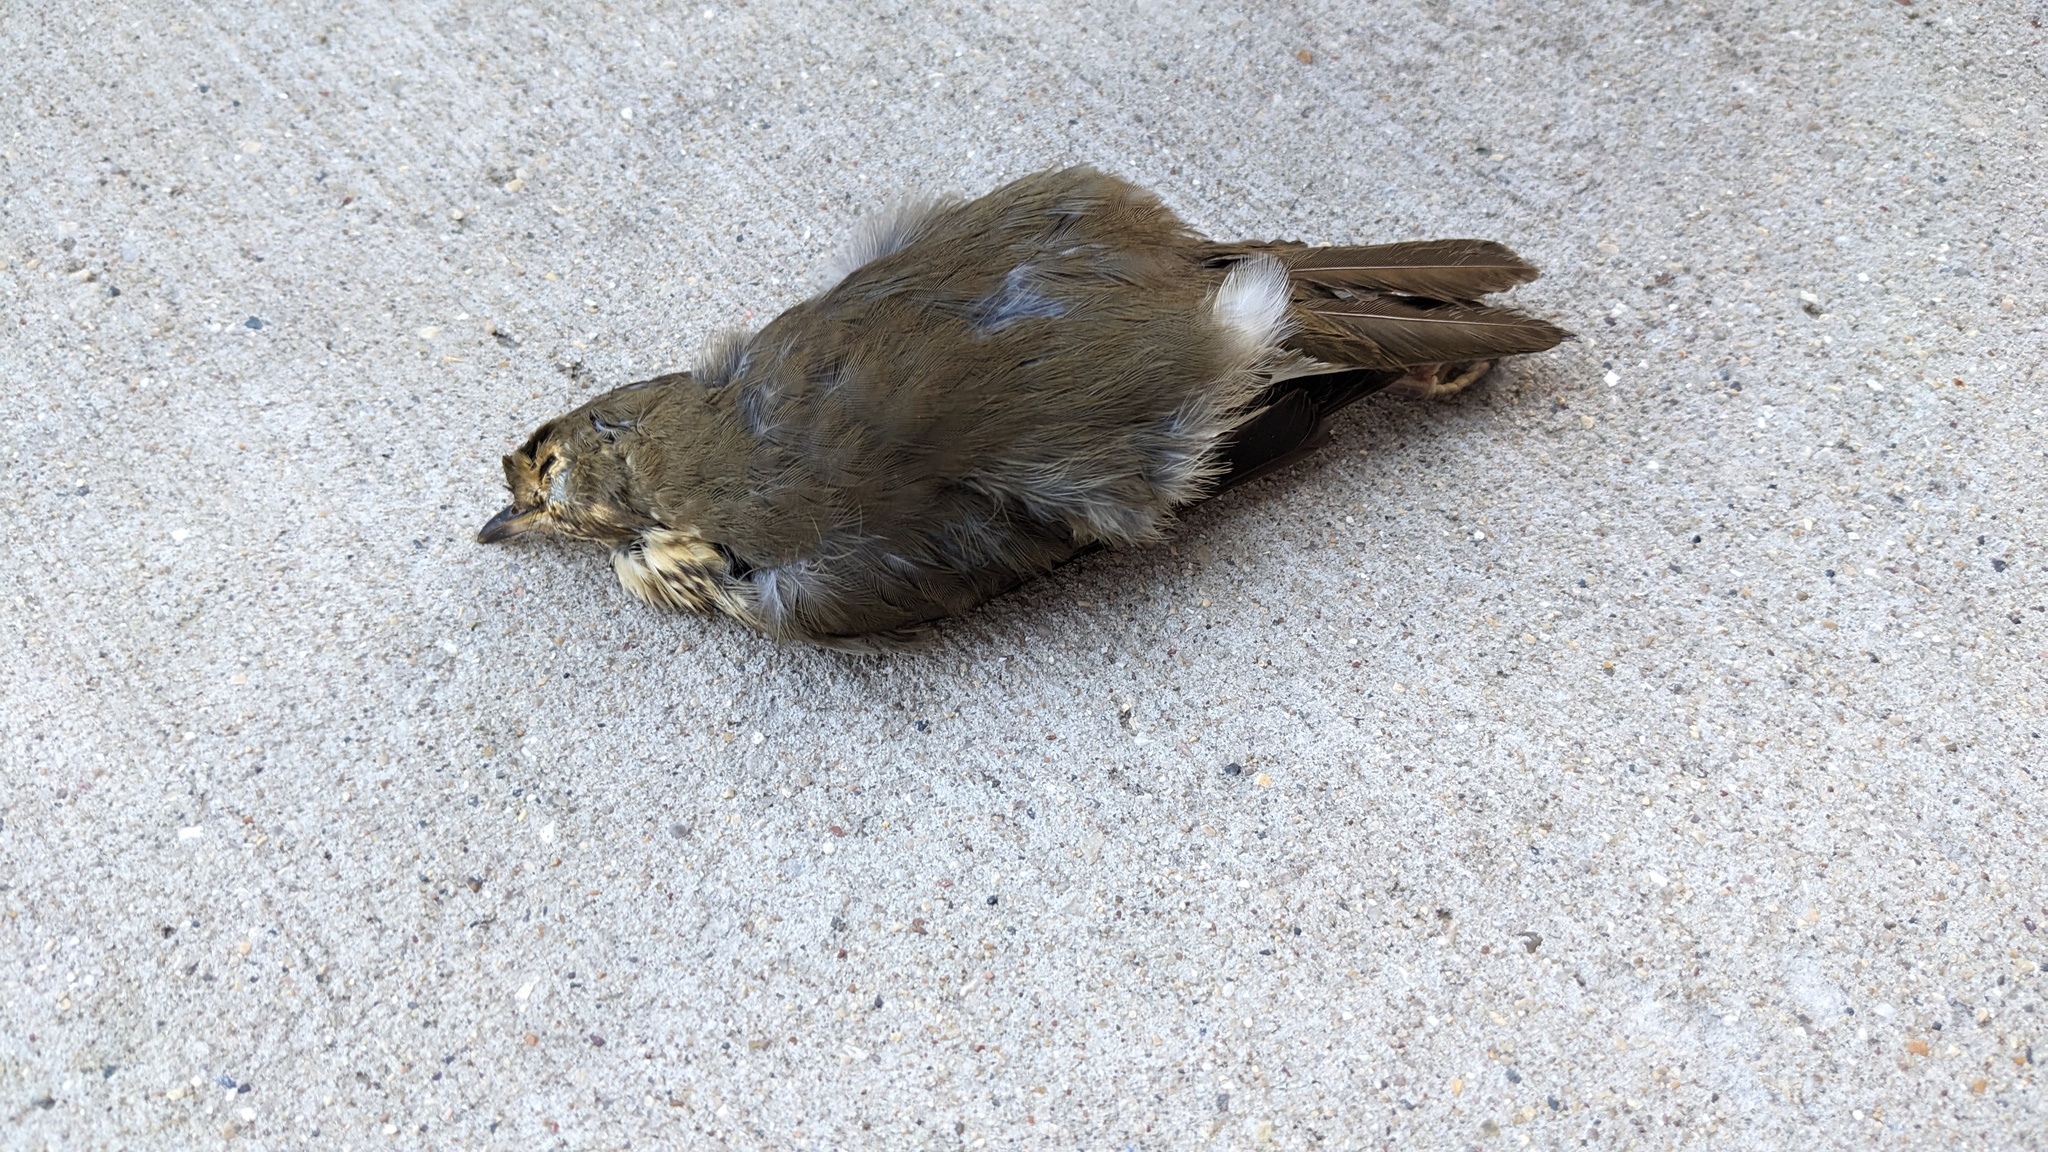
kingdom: Animalia
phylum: Chordata
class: Aves
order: Passeriformes
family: Turdidae
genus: Catharus
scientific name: Catharus ustulatus
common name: Swainson's thrush
